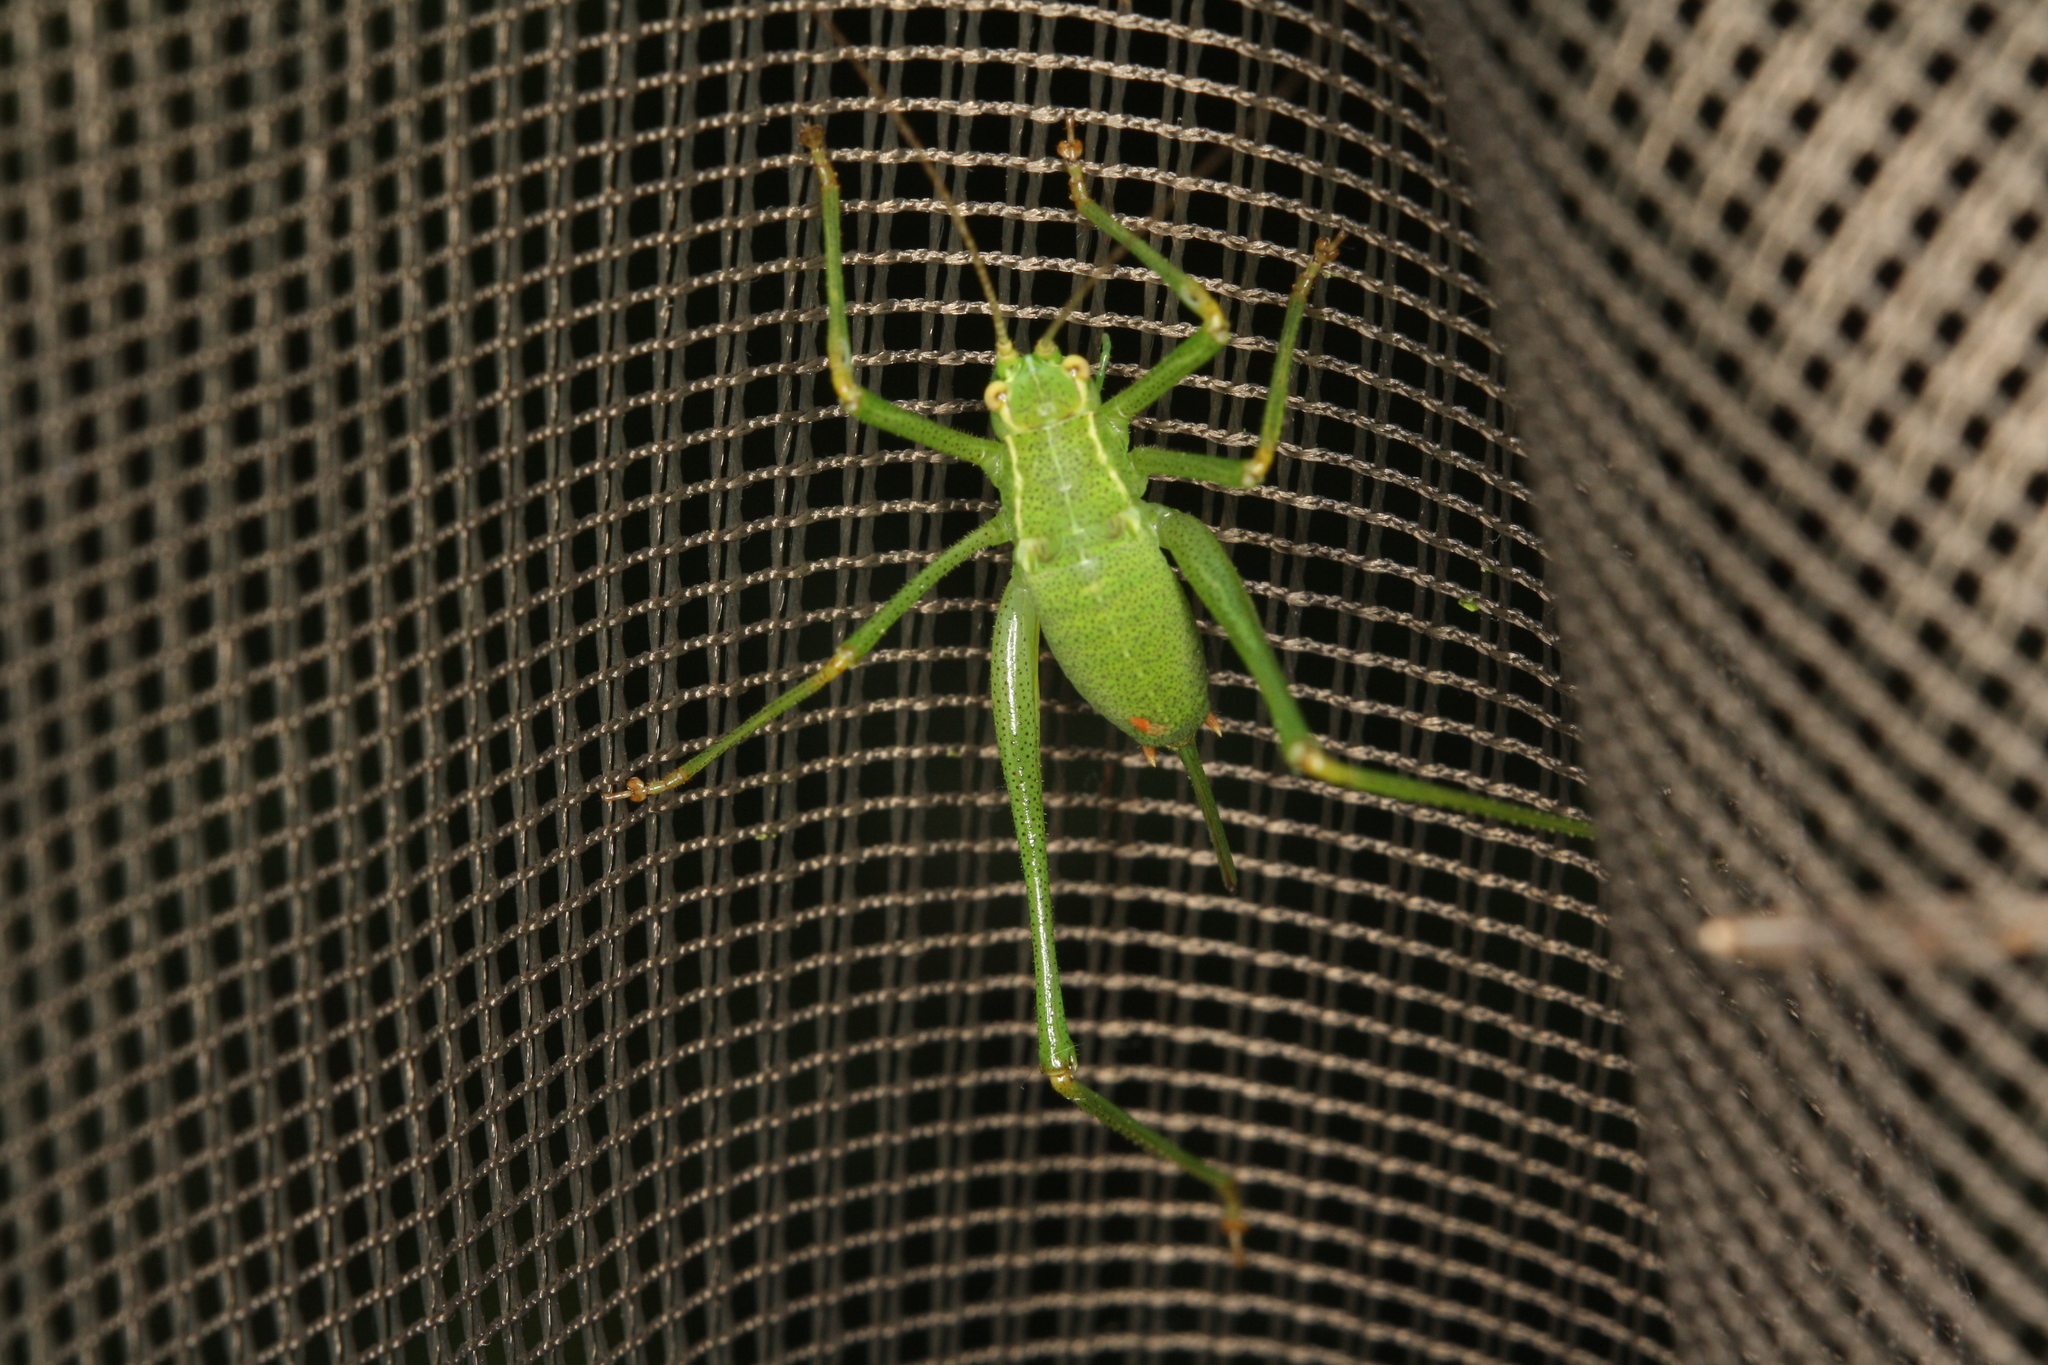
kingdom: Animalia
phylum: Arthropoda
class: Insecta
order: Orthoptera
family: Tettigoniidae
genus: Leptophyes
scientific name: Leptophyes punctatissima
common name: Speckled bush-cricket
